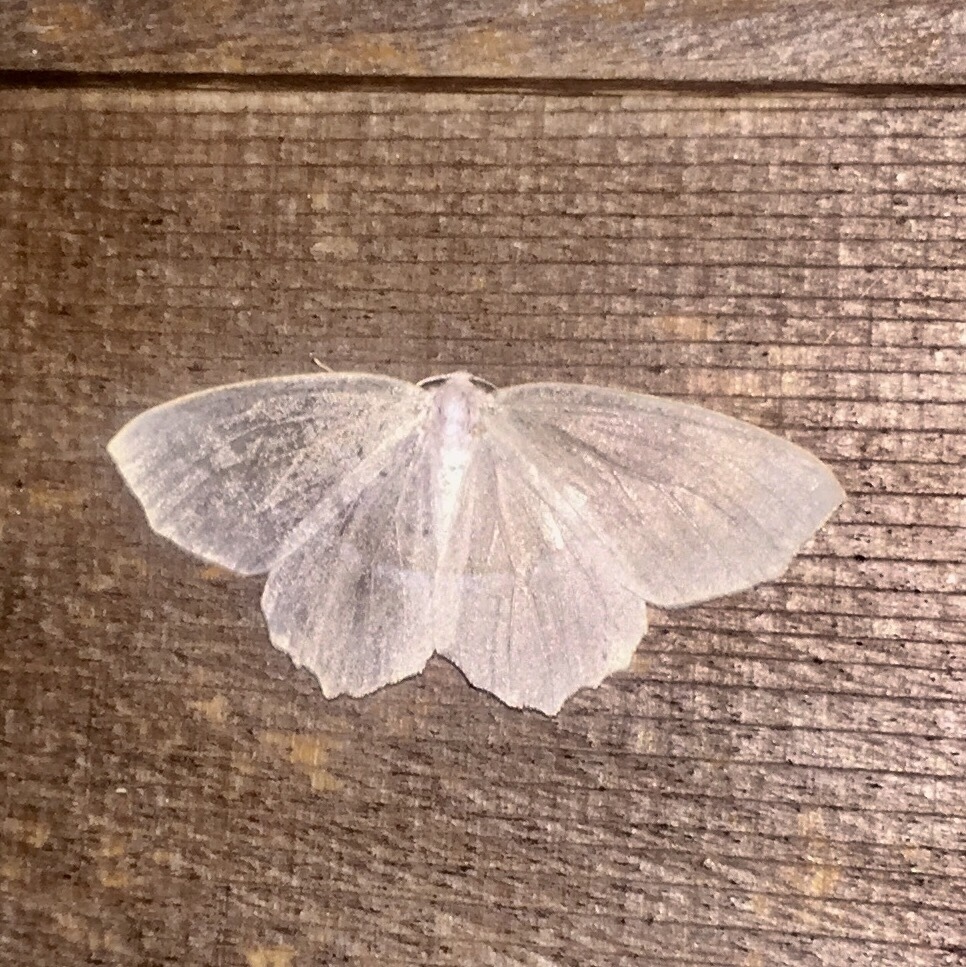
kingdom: Animalia
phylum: Arthropoda
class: Insecta
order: Lepidoptera
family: Geometridae
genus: Campaea
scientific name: Campaea perlata
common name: Fringed looper
